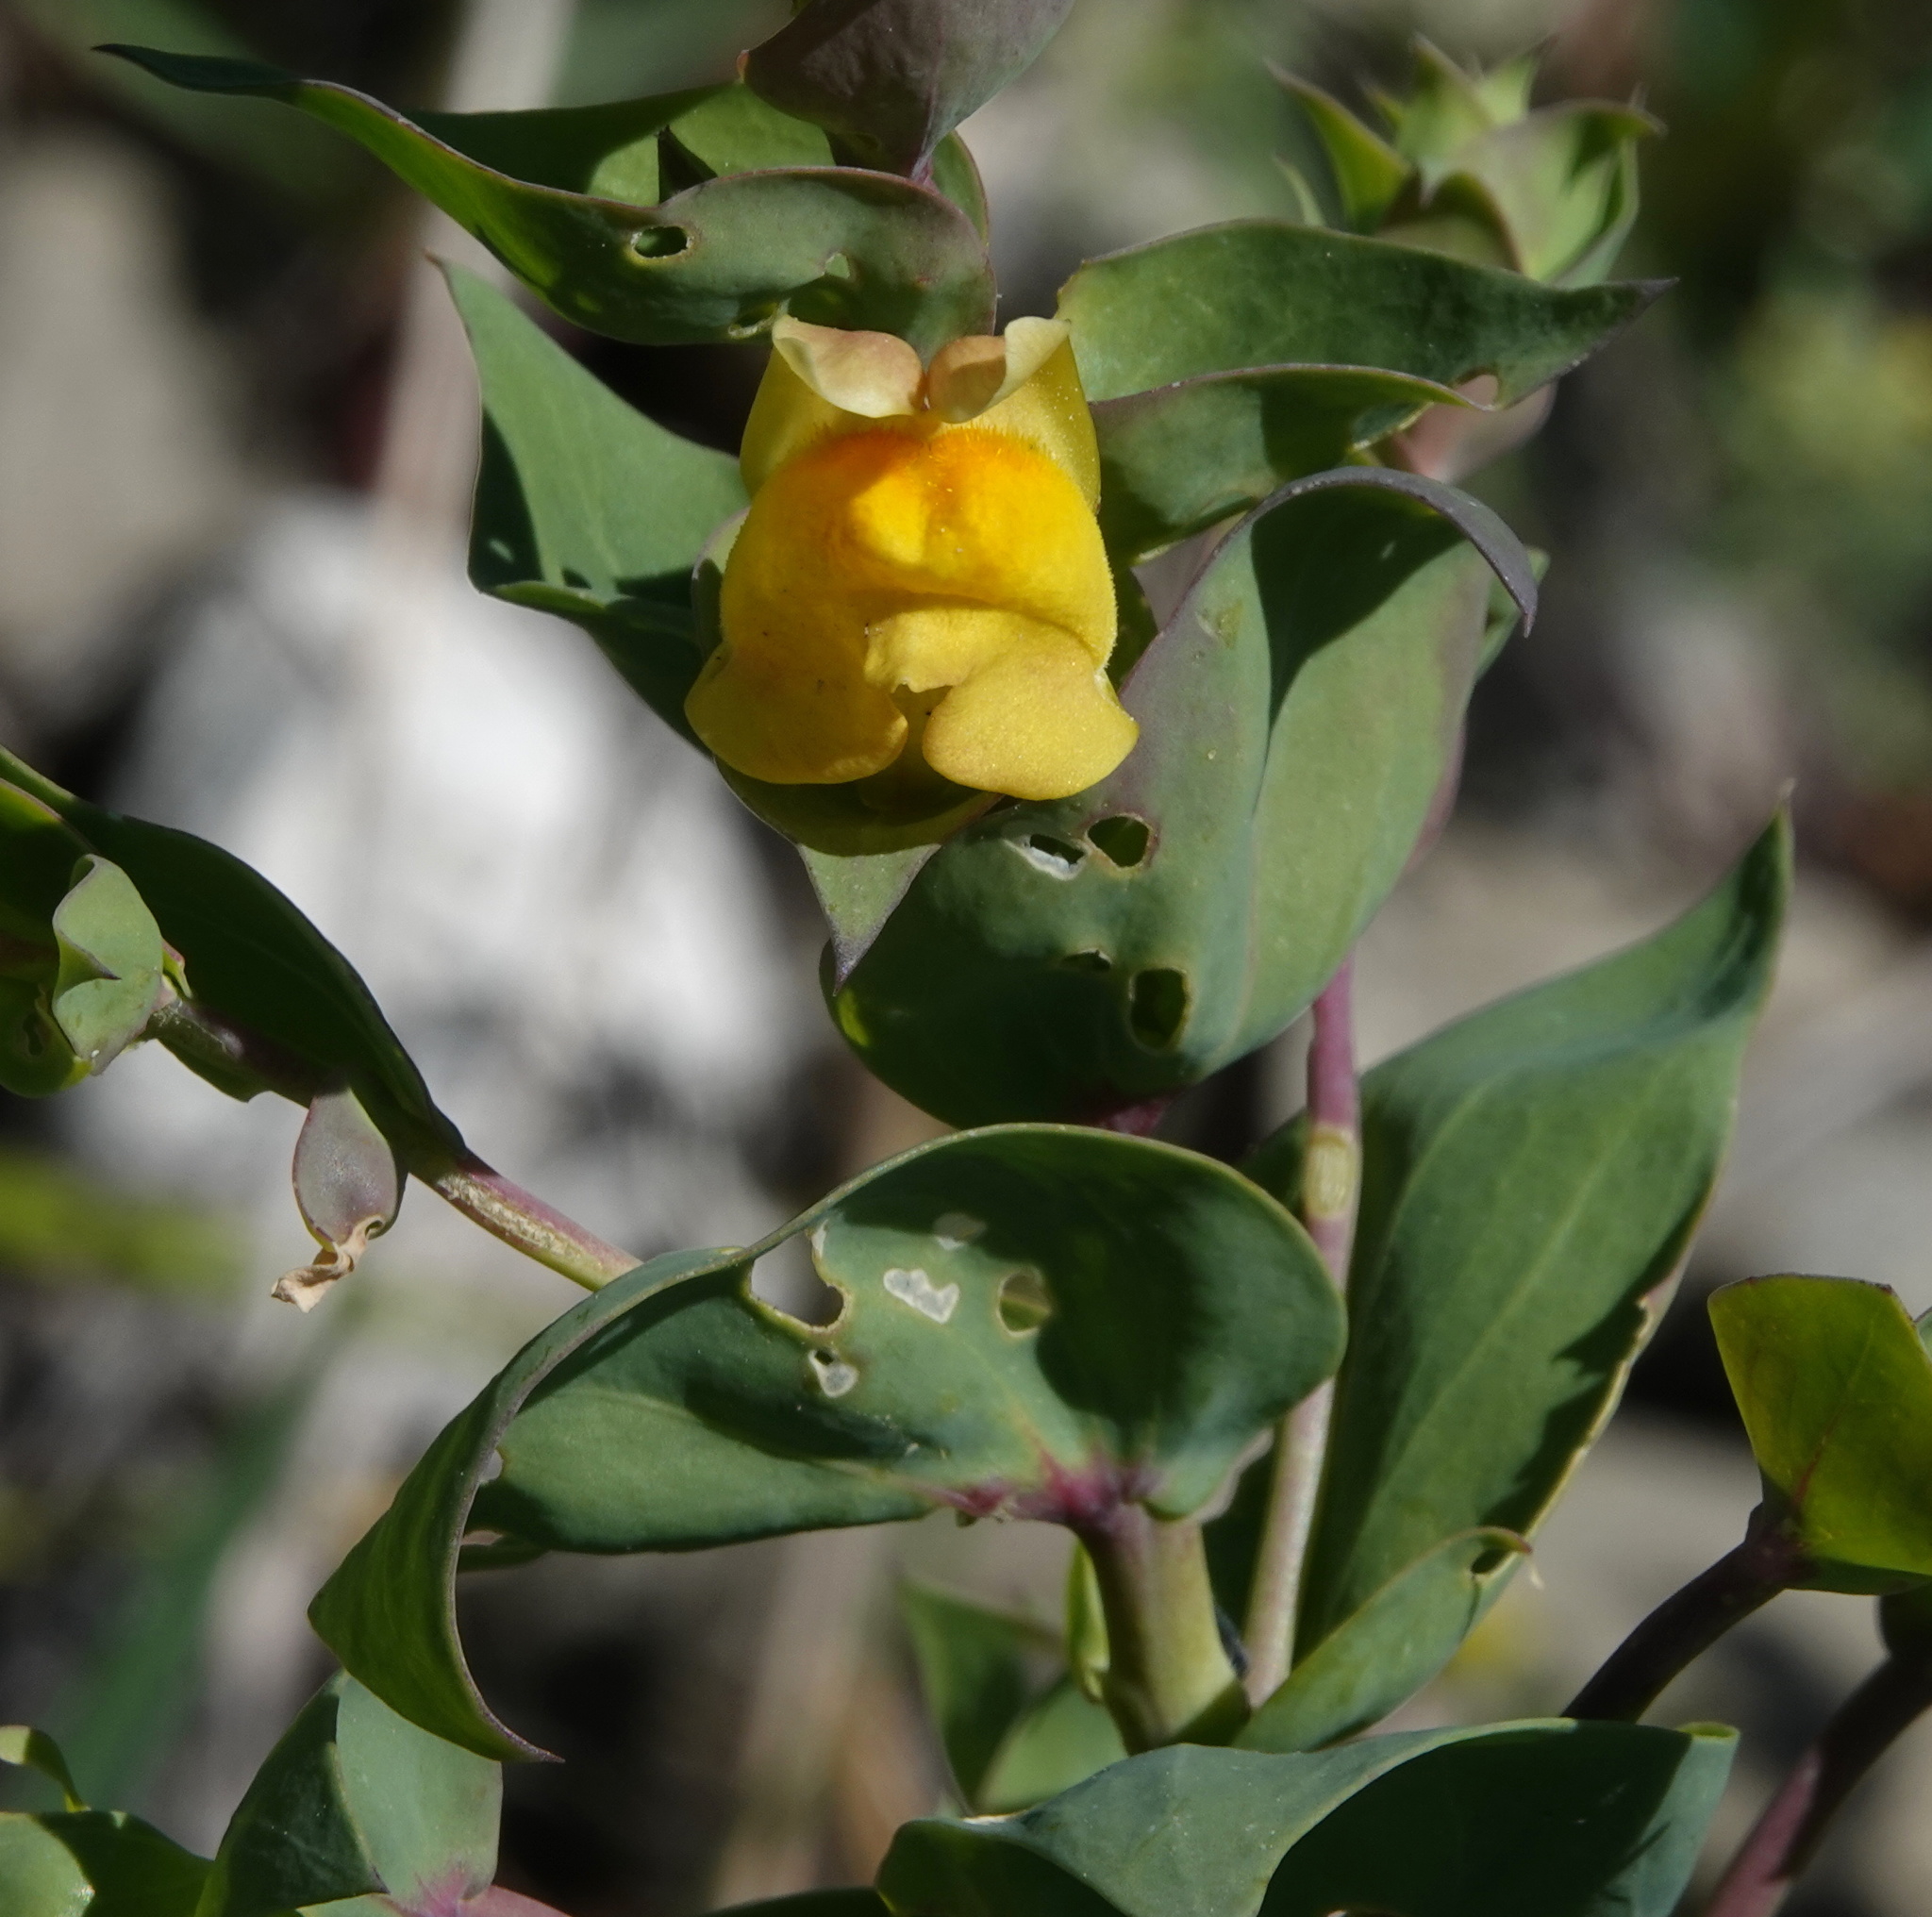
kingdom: Plantae
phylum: Tracheophyta
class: Magnoliopsida
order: Lamiales
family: Plantaginaceae
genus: Linaria
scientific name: Linaria dalmatica
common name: Dalmatian toadflax
